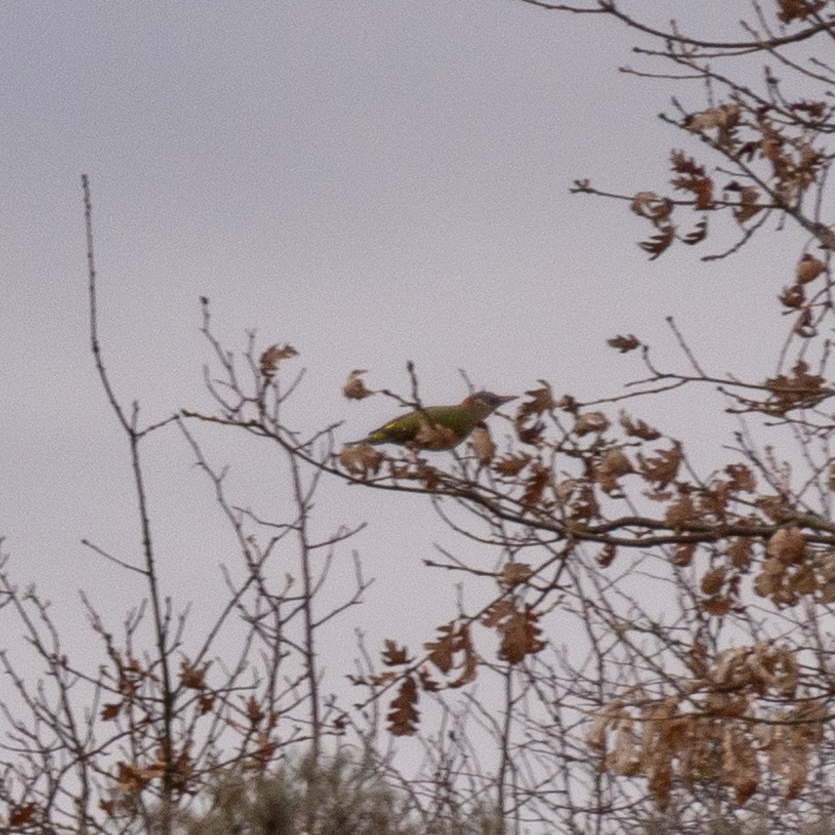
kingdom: Animalia
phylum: Chordata
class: Aves
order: Piciformes
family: Picidae
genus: Picus
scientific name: Picus sharpei
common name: Iberian green woodpecker
